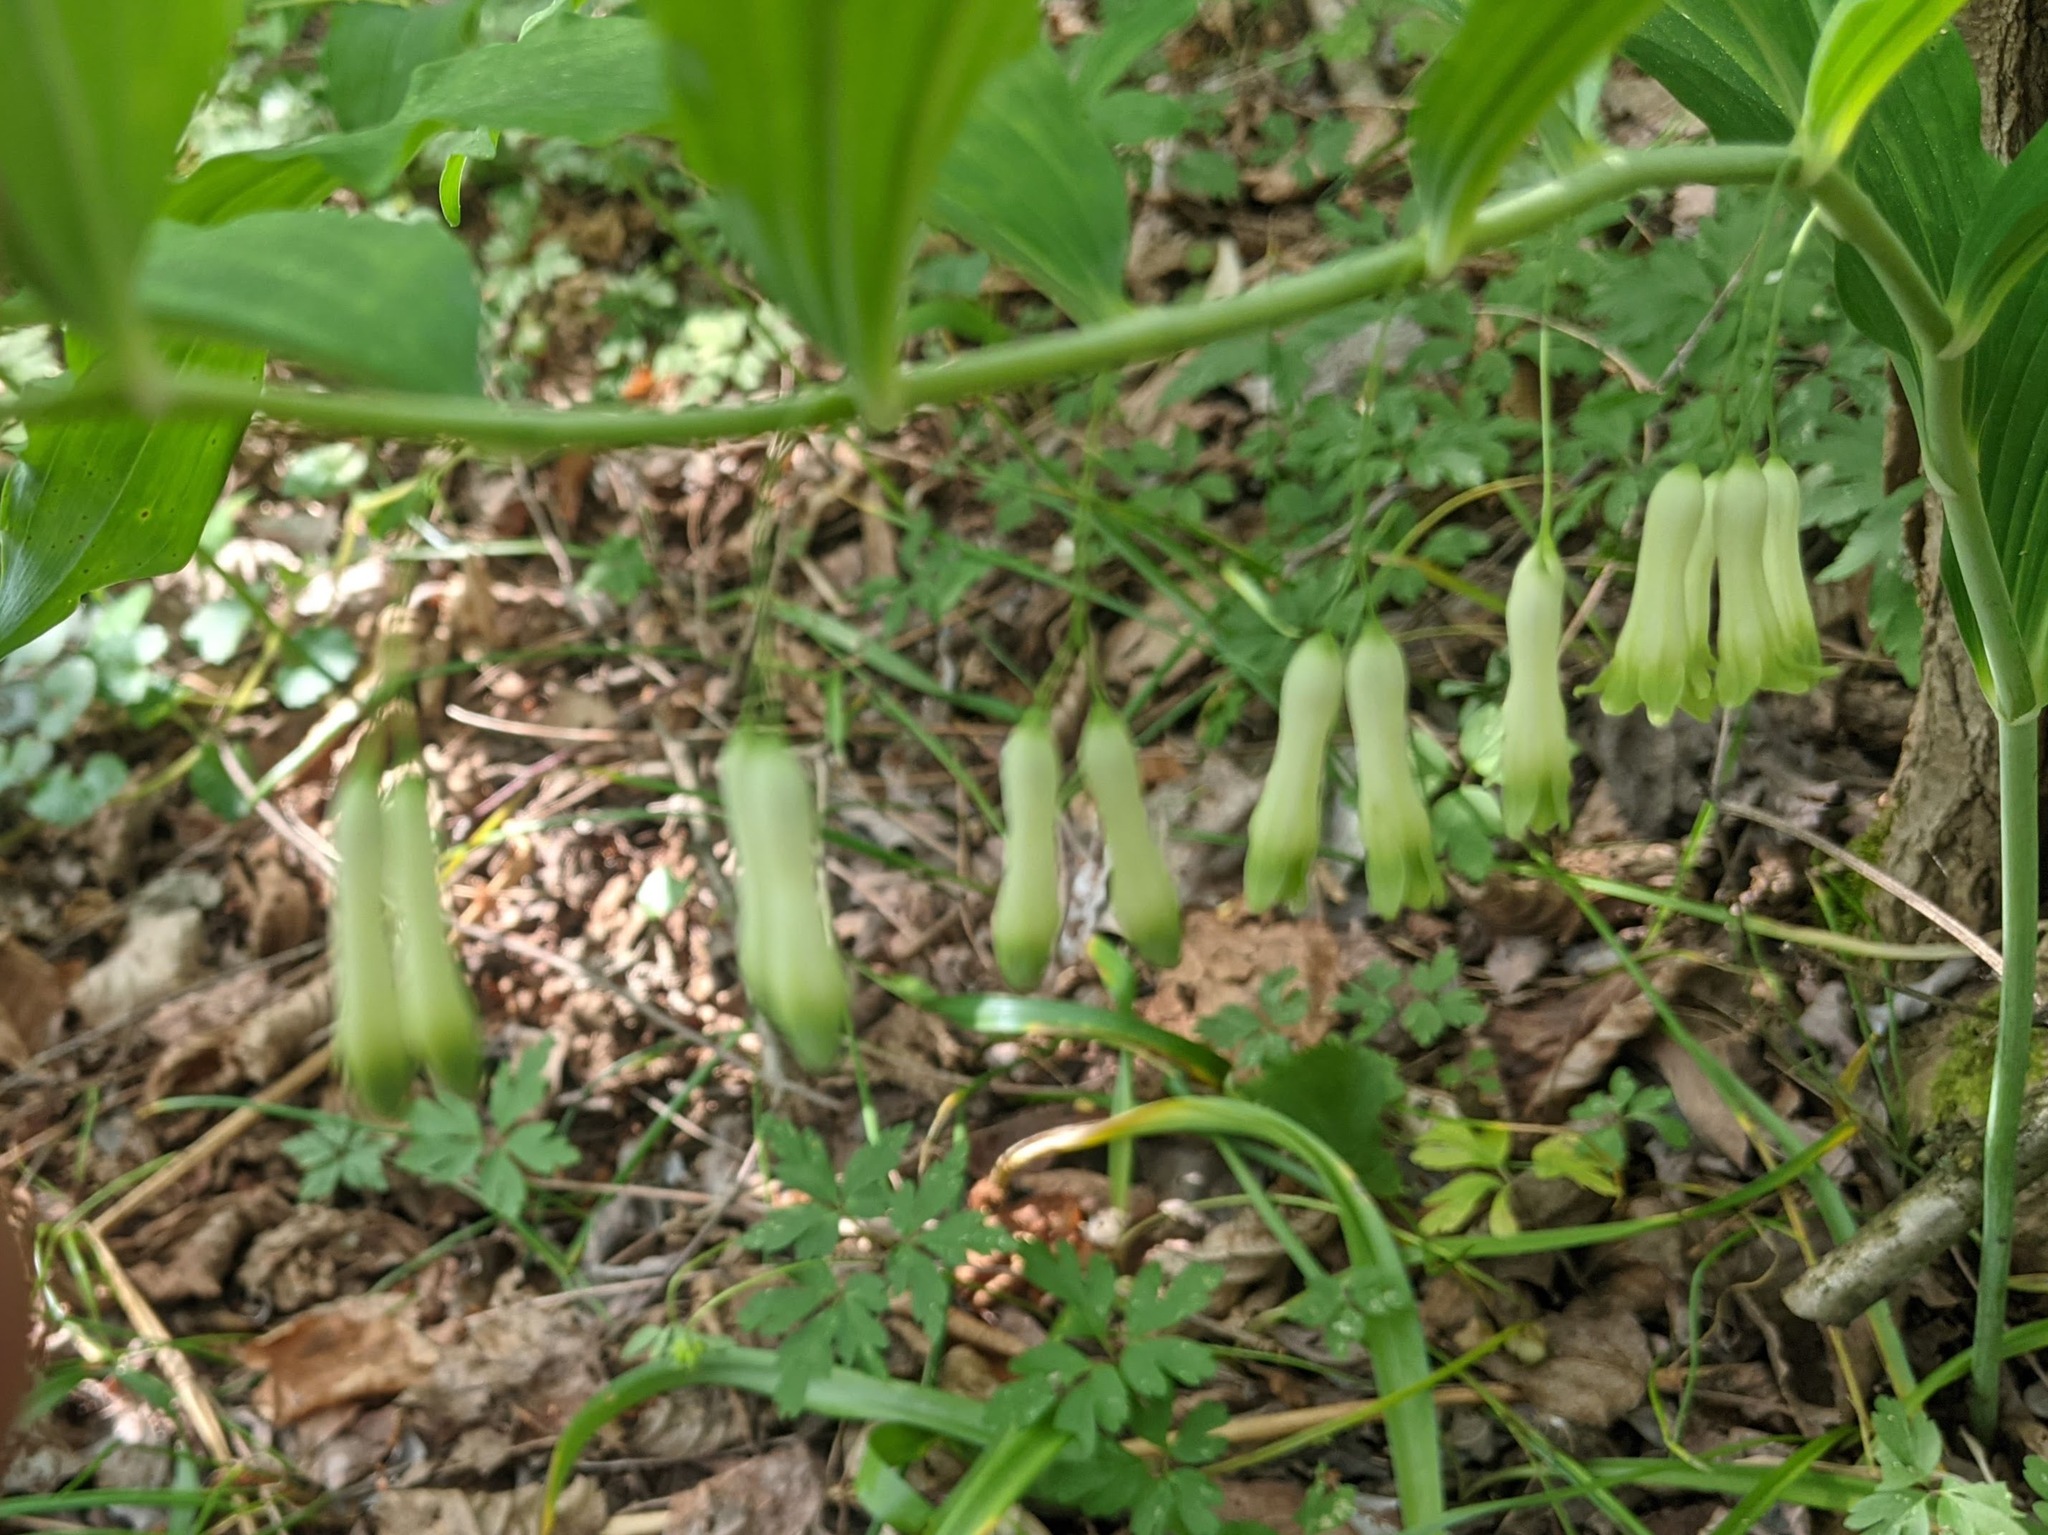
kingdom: Plantae
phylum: Tracheophyta
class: Liliopsida
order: Asparagales
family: Asparagaceae
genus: Polygonatum
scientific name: Polygonatum multiflorum
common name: Solomon's-seal
